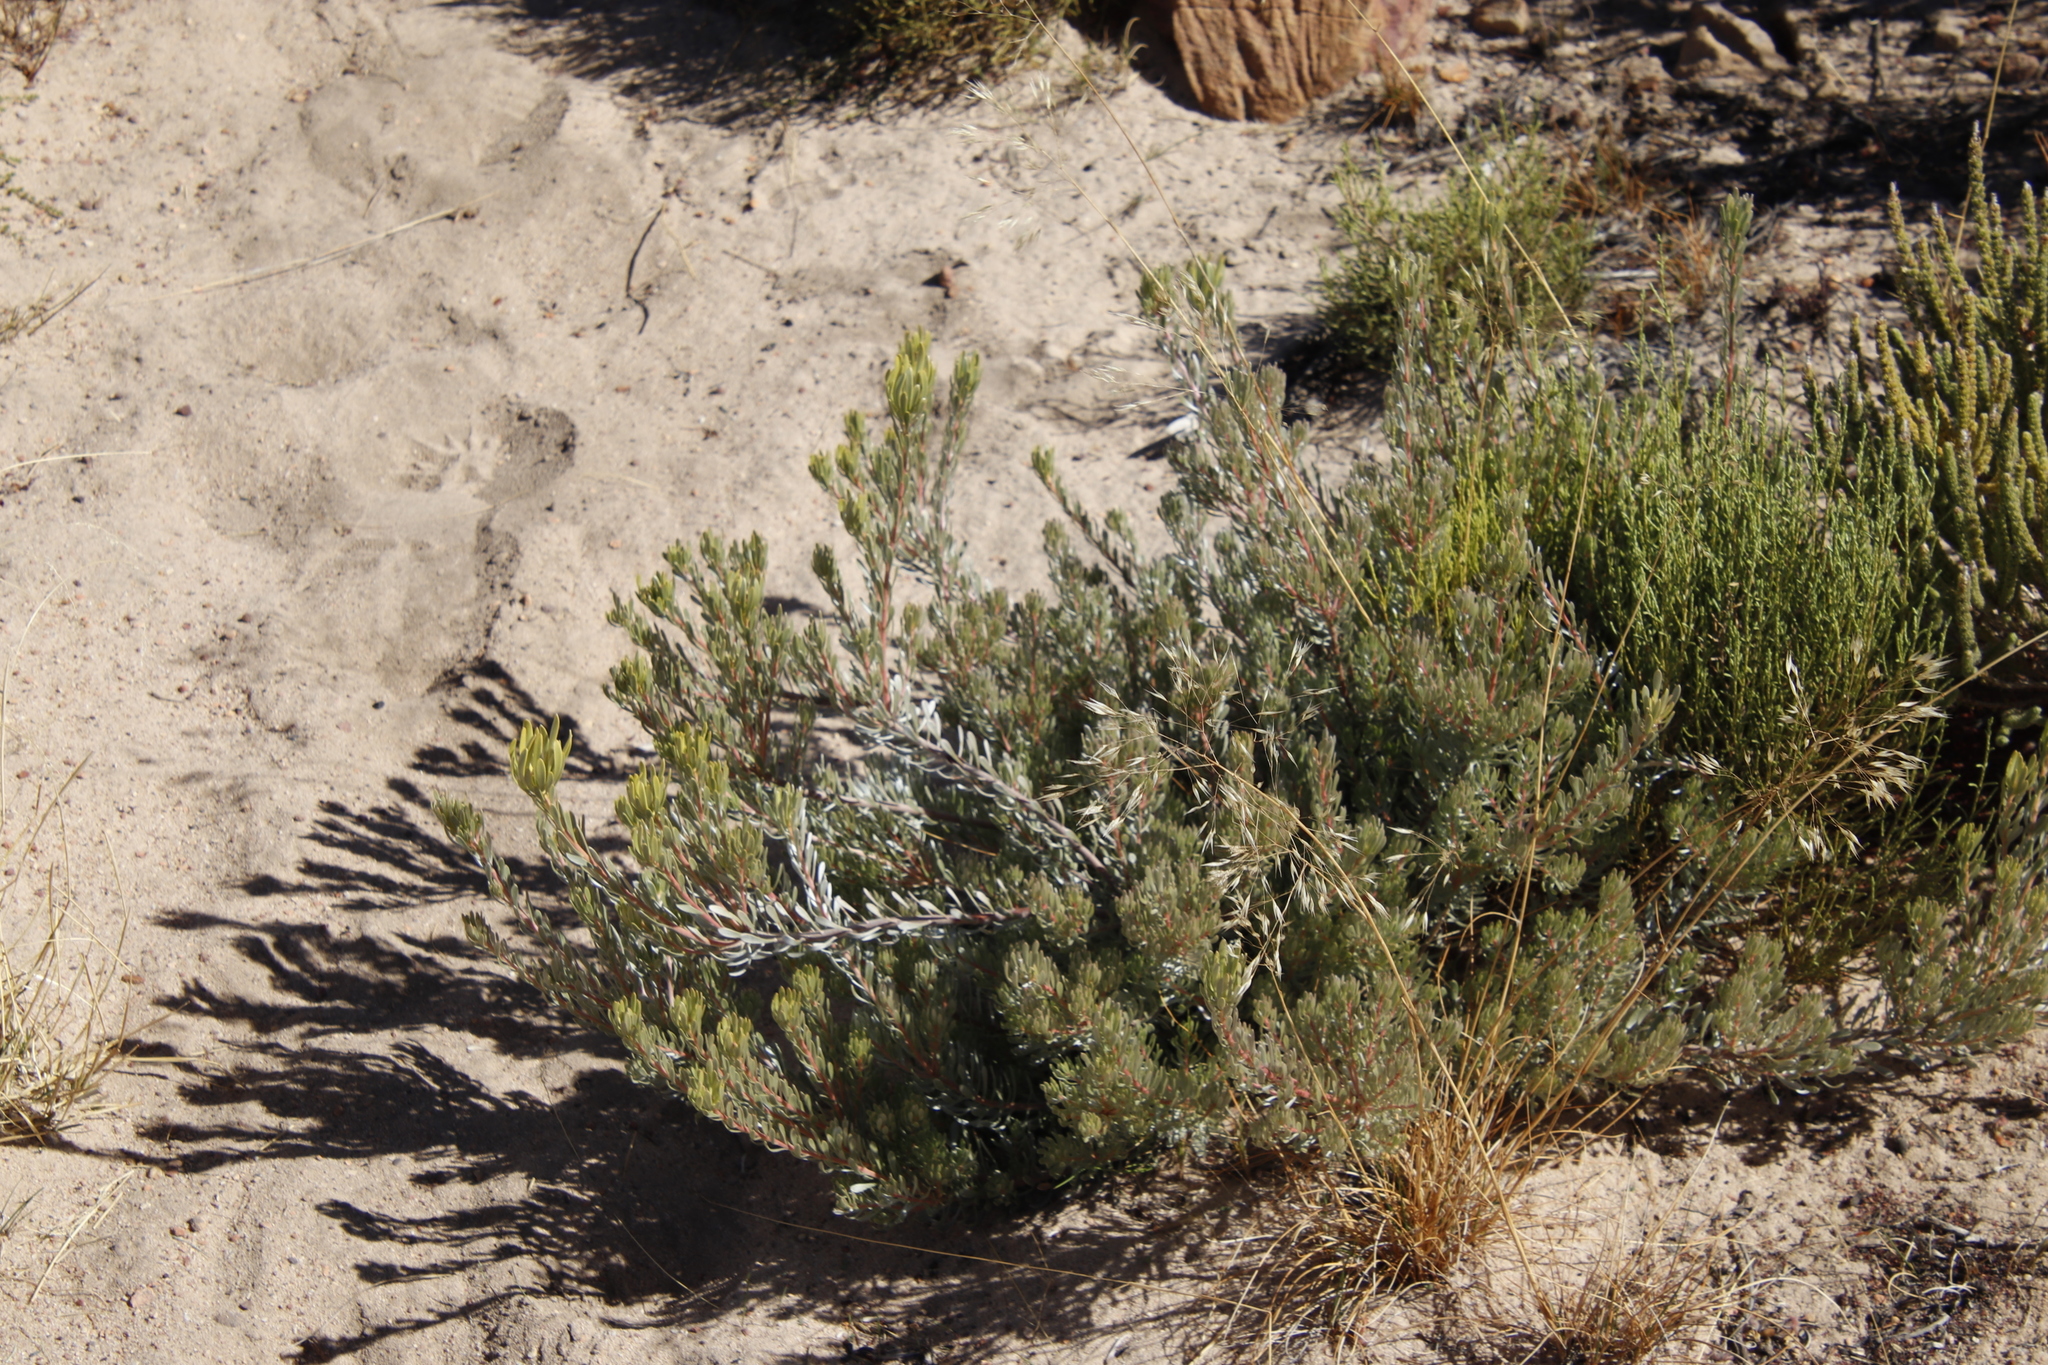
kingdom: Plantae
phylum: Tracheophyta
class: Magnoliopsida
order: Proteales
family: Proteaceae
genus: Leucadendron
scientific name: Leucadendron nitidum
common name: Bokkeveld conebush
